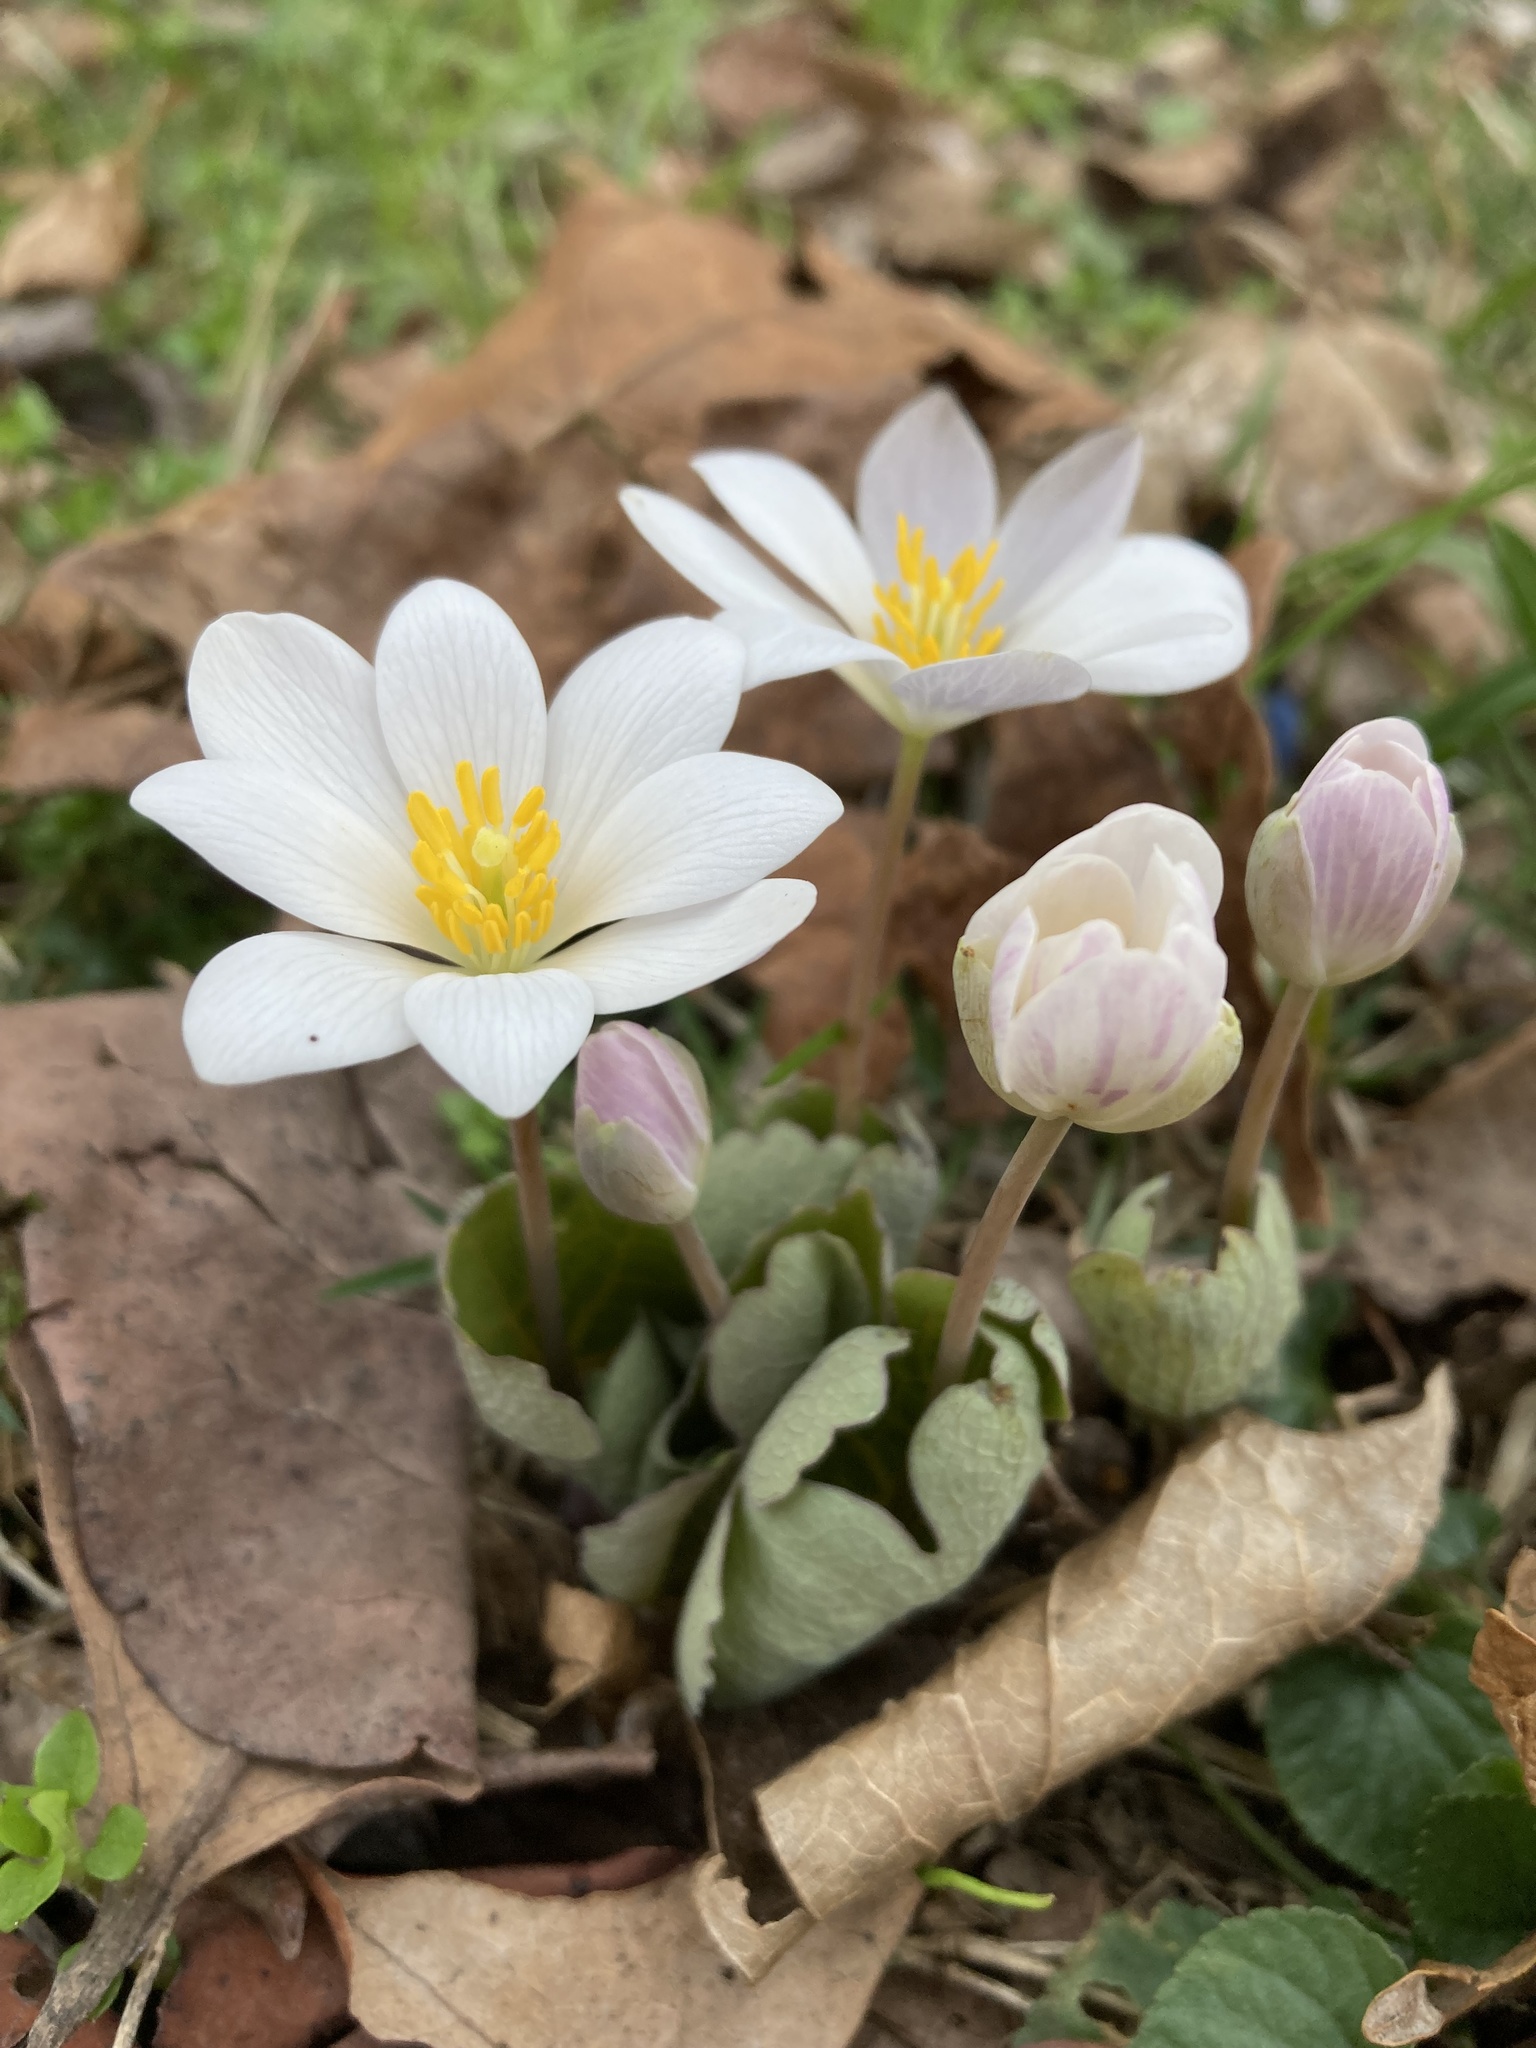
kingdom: Plantae
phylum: Tracheophyta
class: Magnoliopsida
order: Ranunculales
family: Papaveraceae
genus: Sanguinaria
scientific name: Sanguinaria canadensis
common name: Bloodroot
